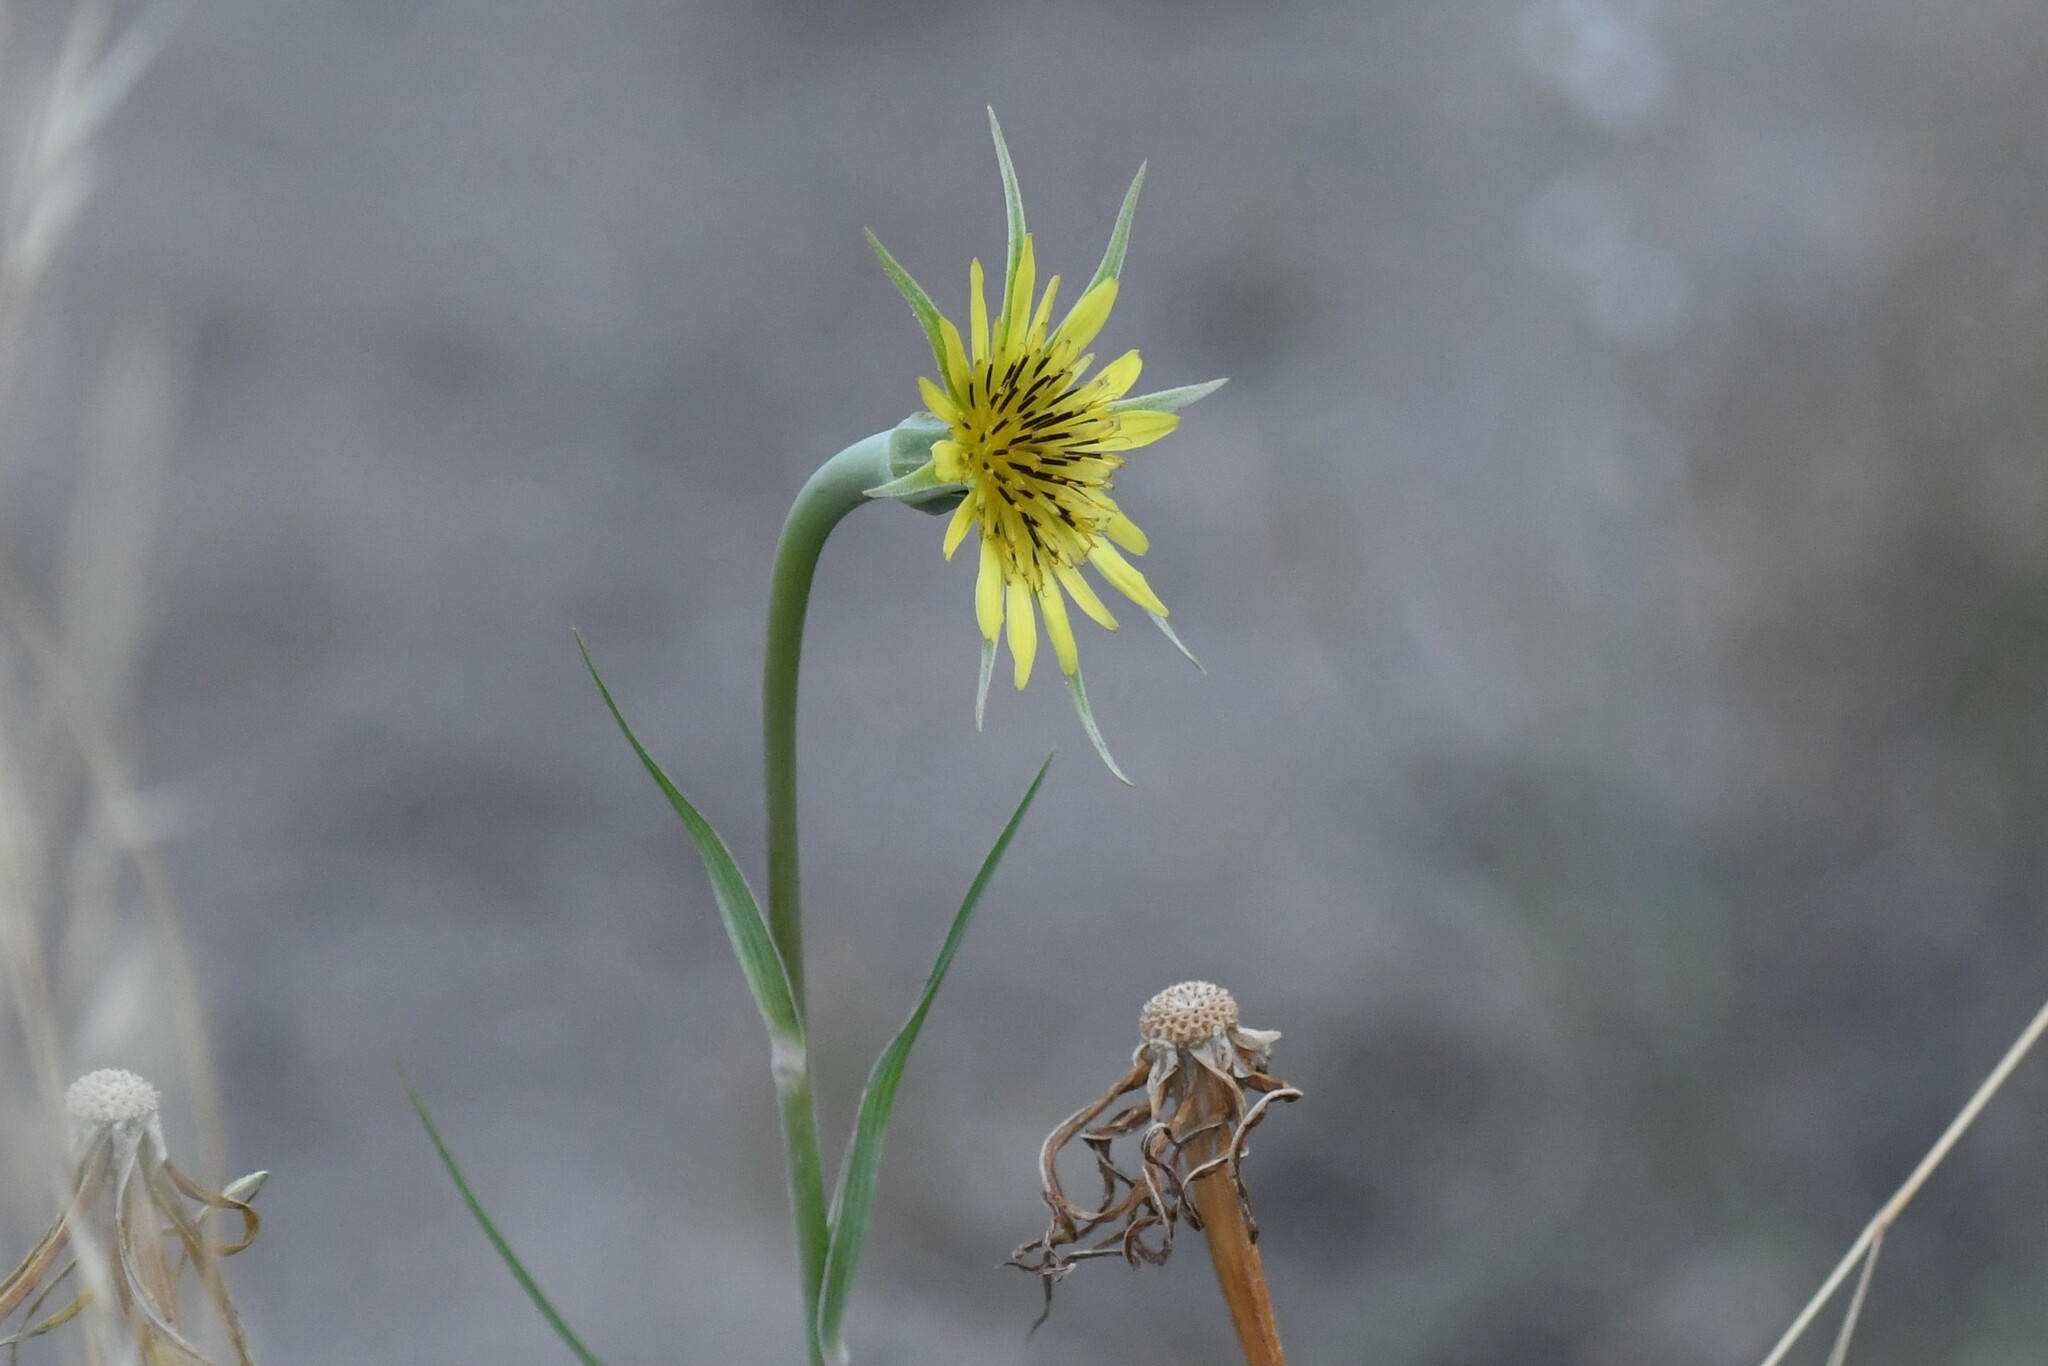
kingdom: Plantae
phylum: Tracheophyta
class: Magnoliopsida
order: Asterales
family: Asteraceae
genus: Tragopogon
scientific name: Tragopogon dubius
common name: Yellow salsify
